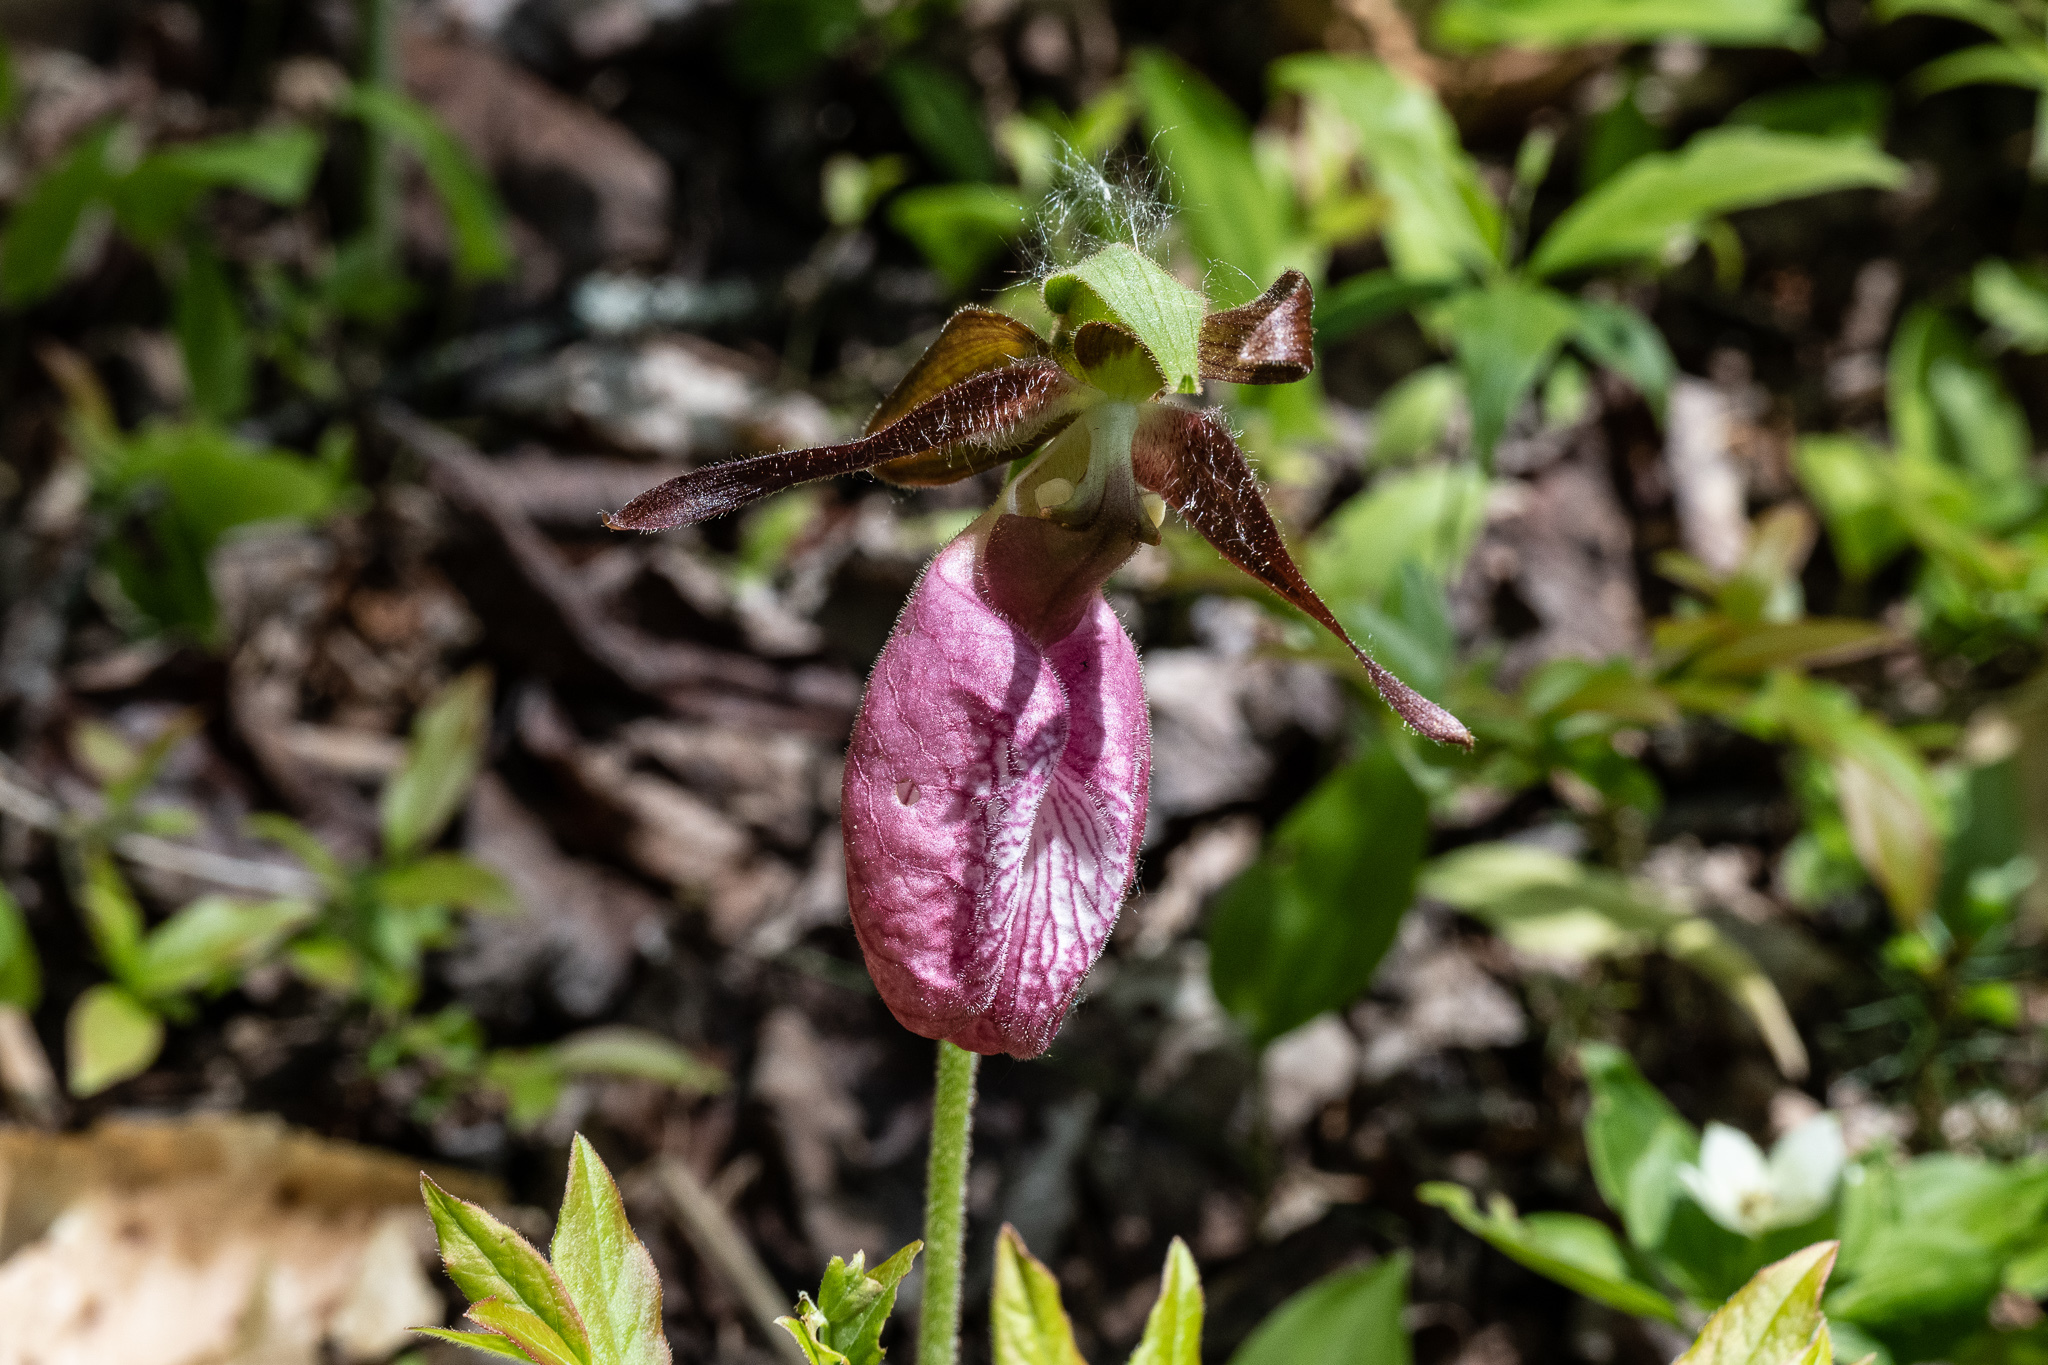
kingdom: Plantae
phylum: Tracheophyta
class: Liliopsida
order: Asparagales
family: Orchidaceae
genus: Cypripedium
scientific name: Cypripedium acaule
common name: Pink lady's-slipper
